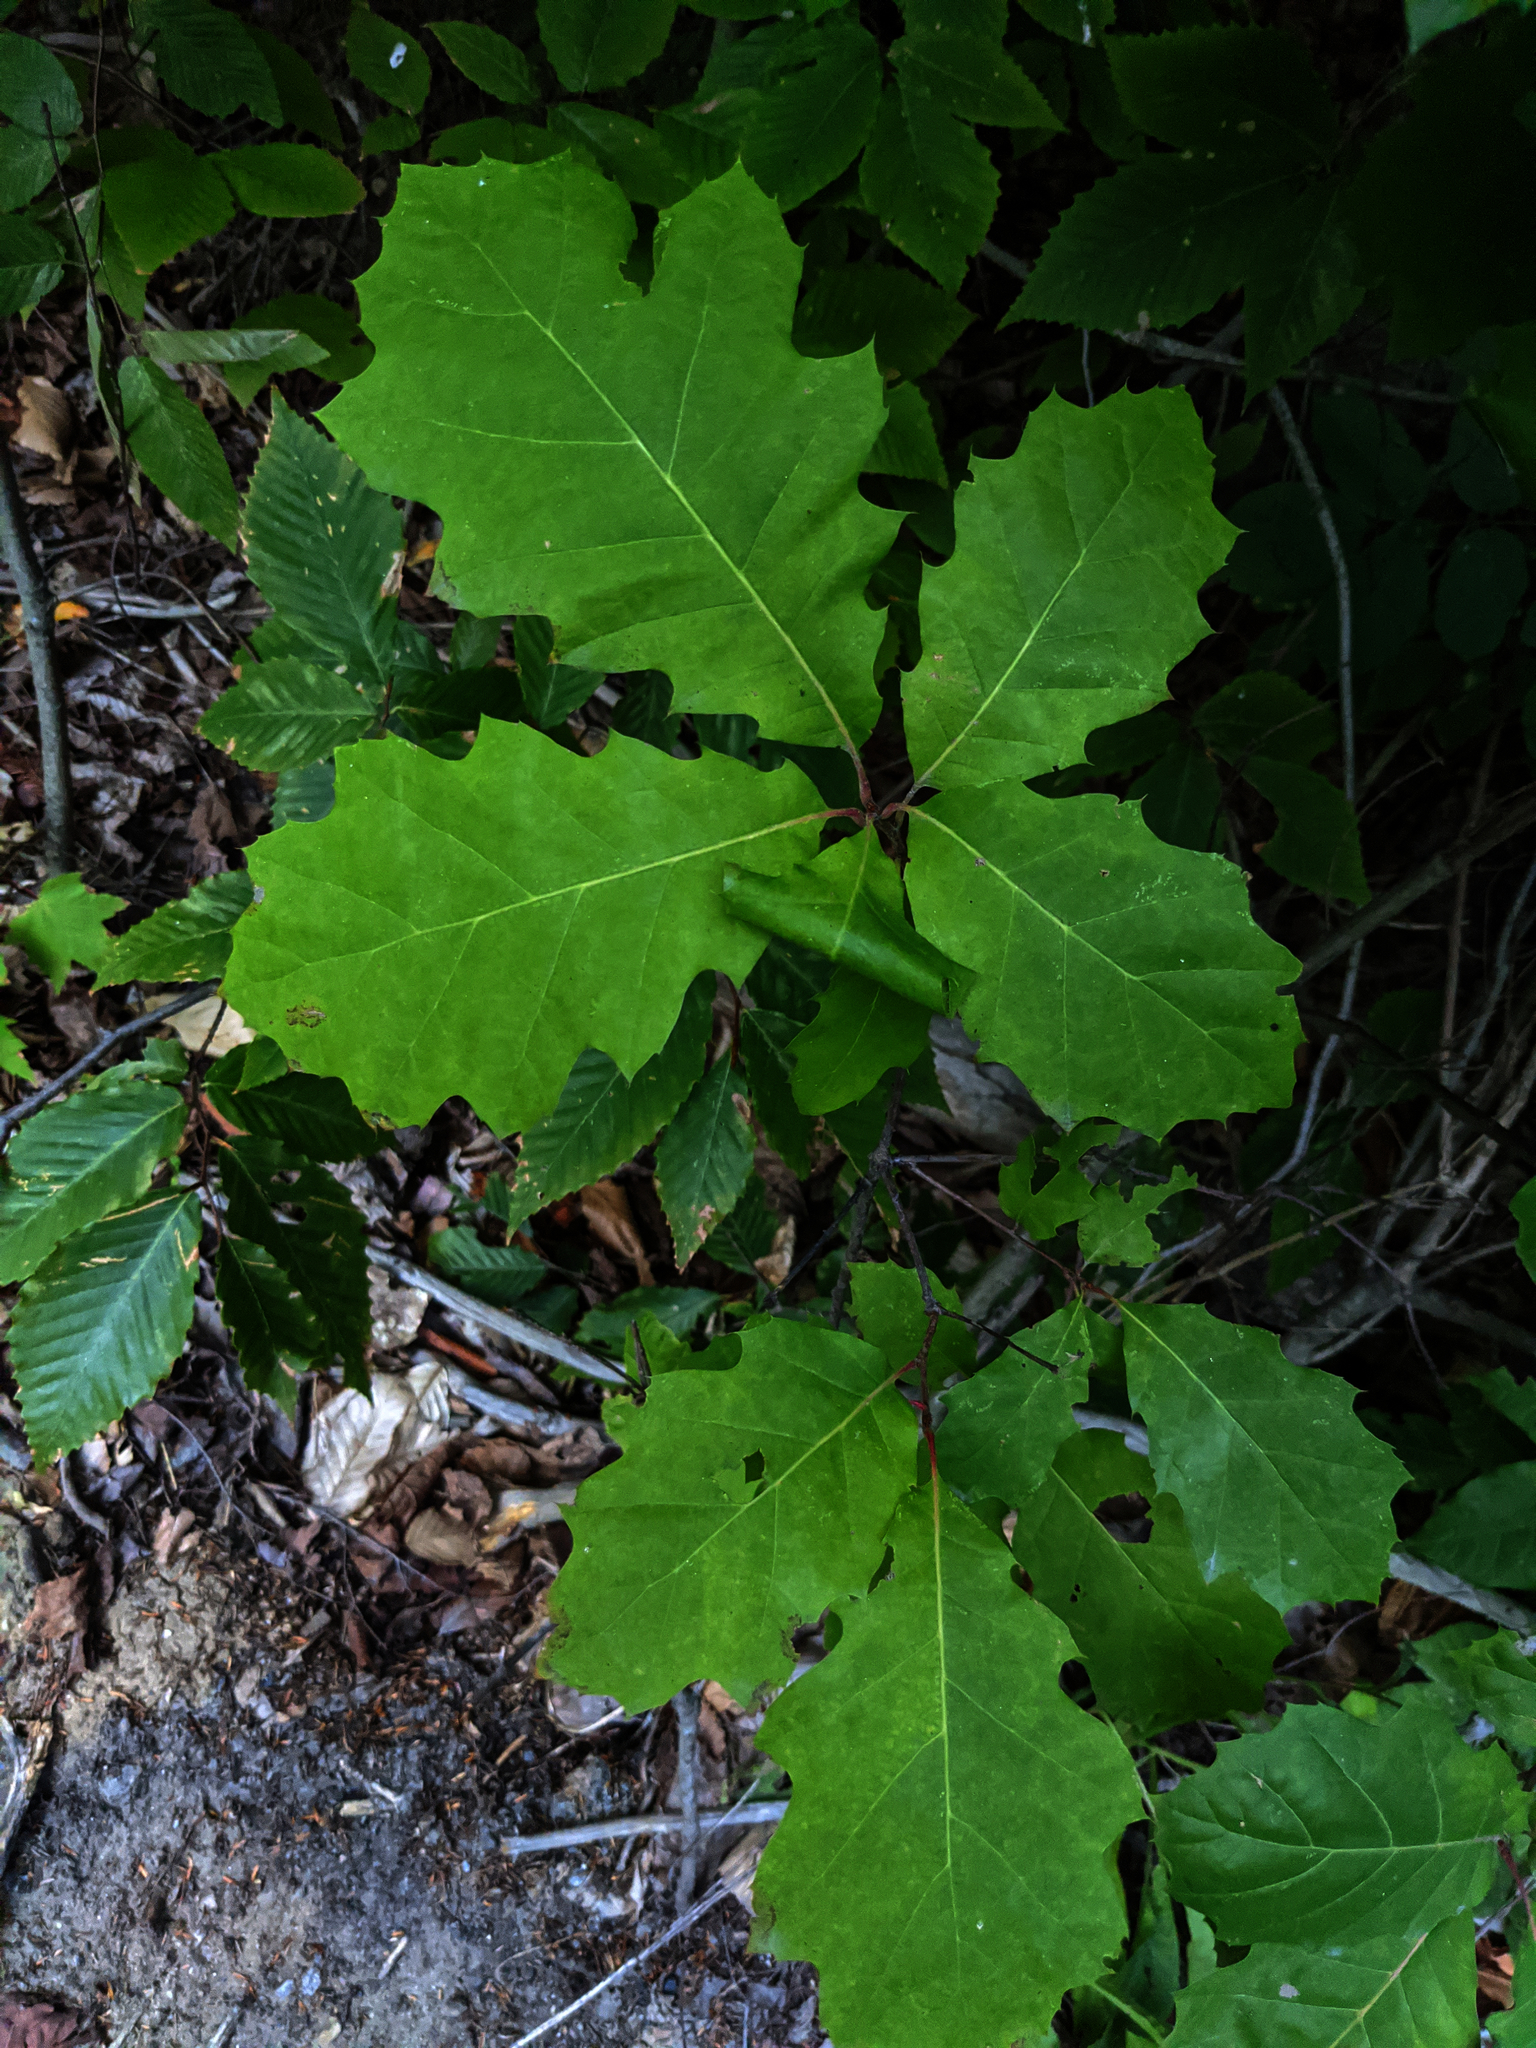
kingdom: Plantae
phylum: Tracheophyta
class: Magnoliopsida
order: Fagales
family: Fagaceae
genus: Quercus
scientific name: Quercus rubra
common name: Red oak
